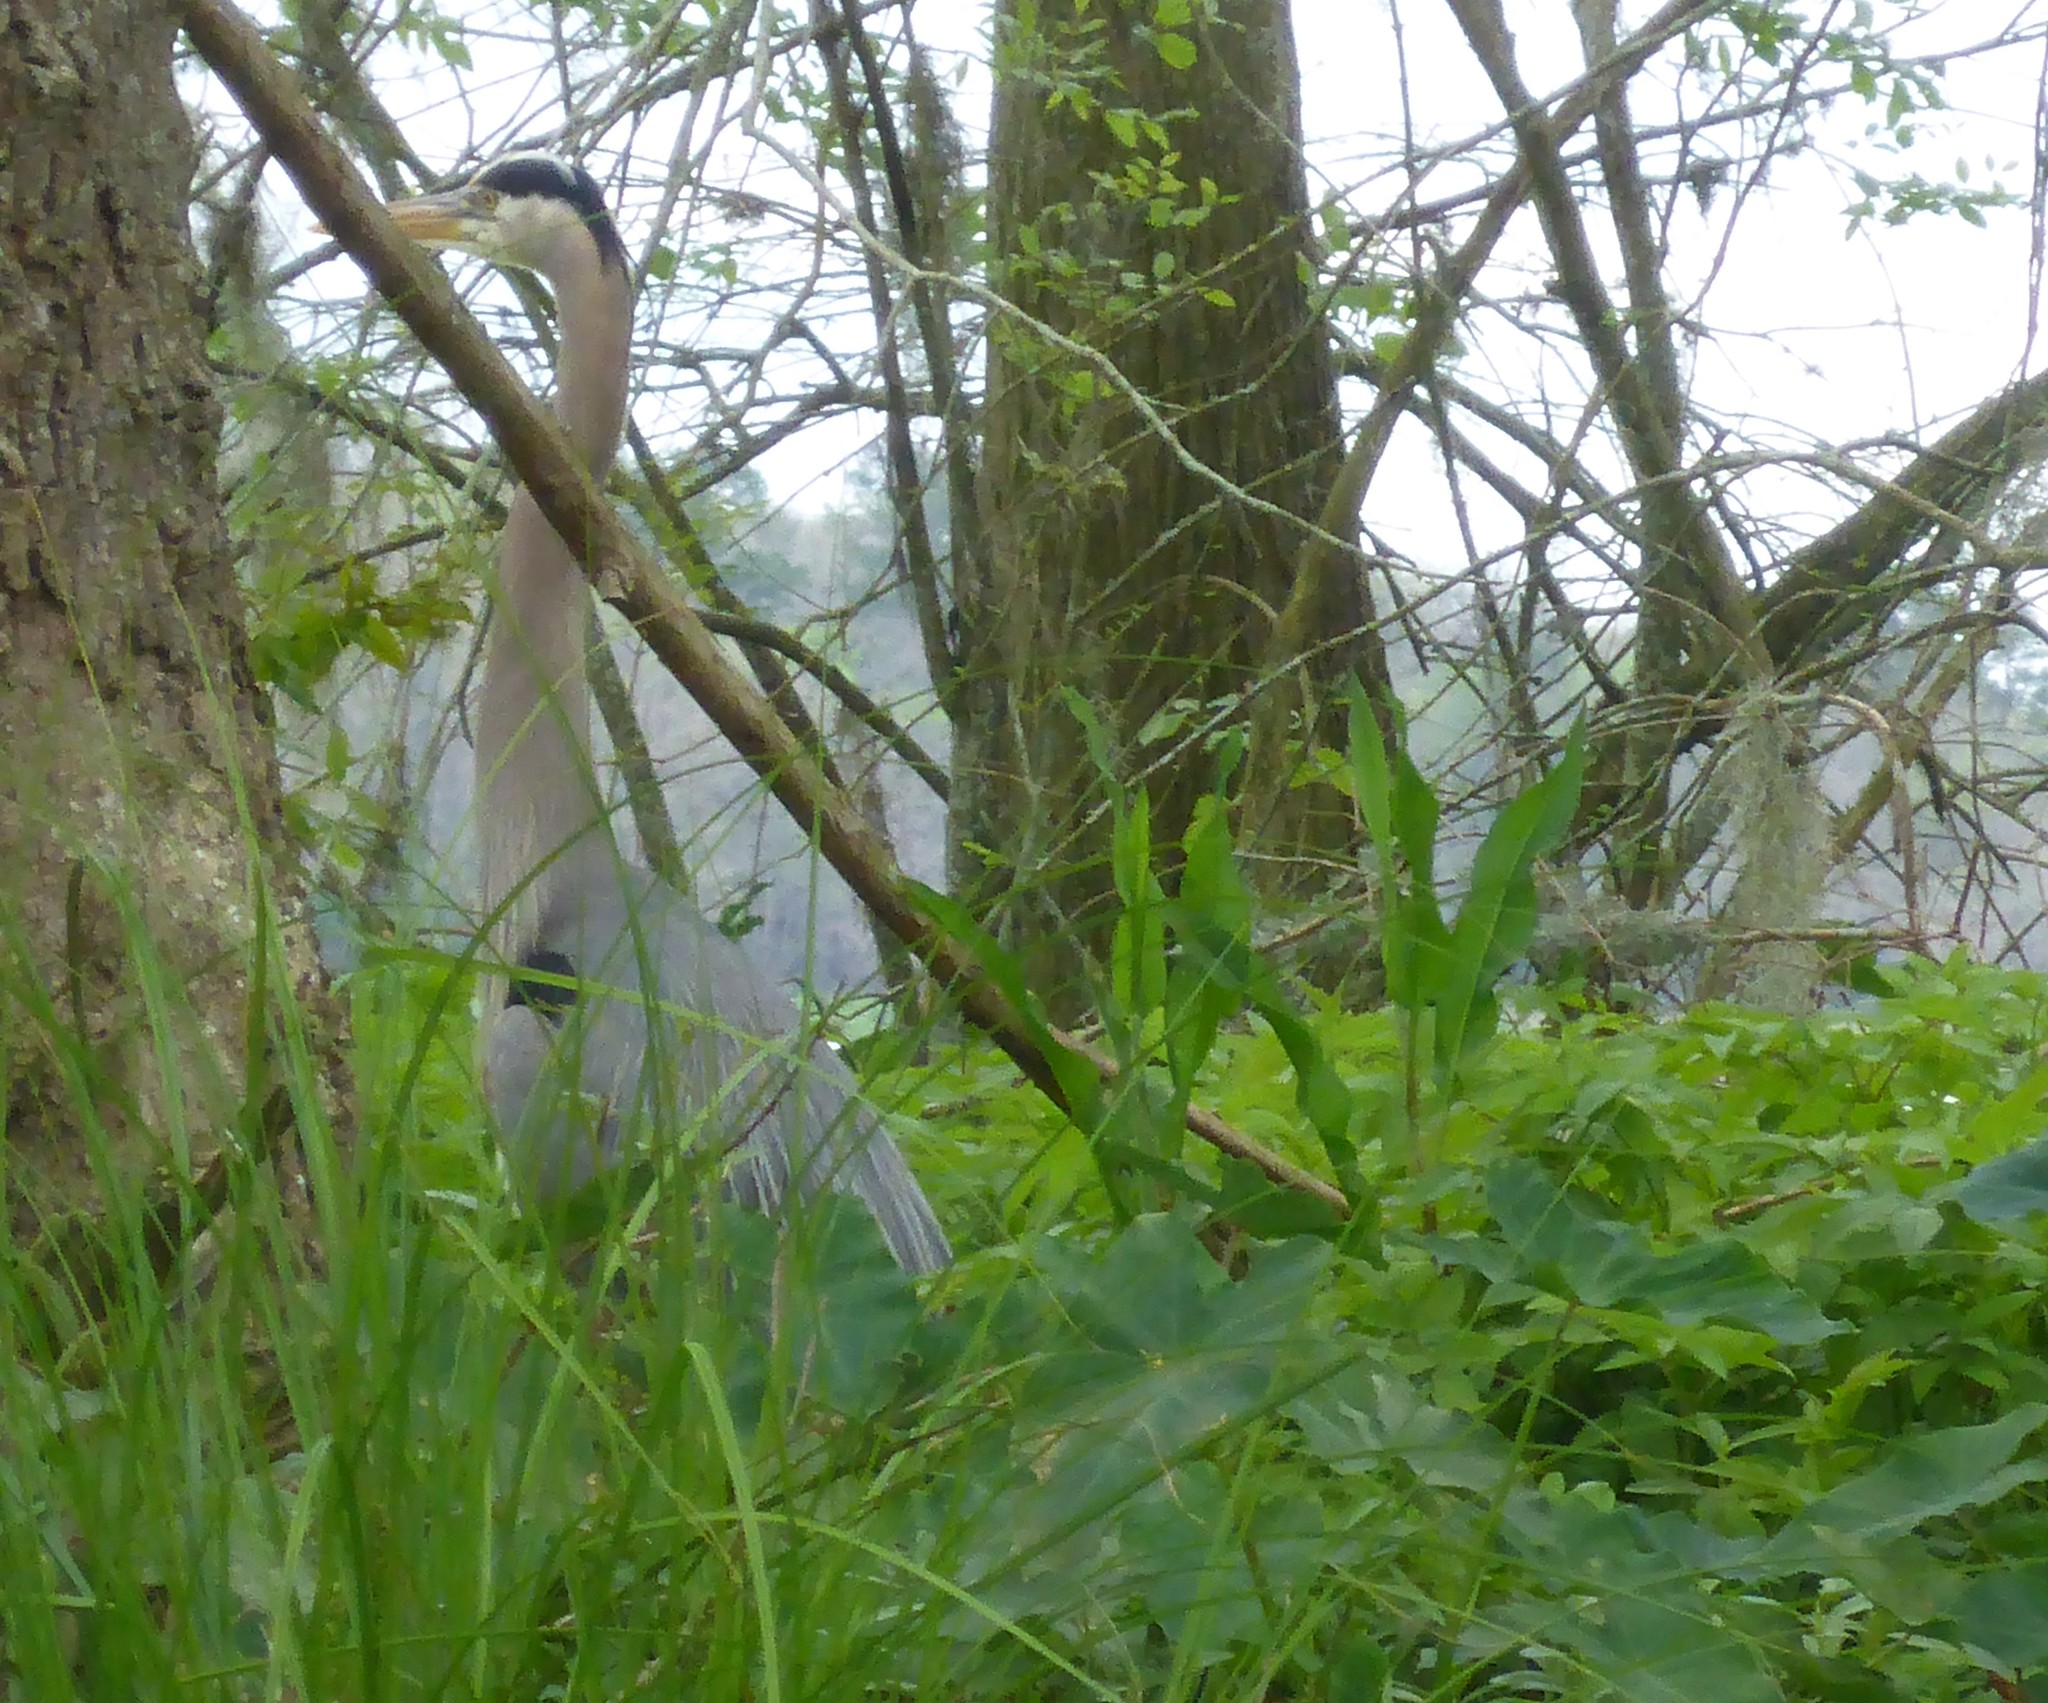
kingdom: Animalia
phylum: Chordata
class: Aves
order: Pelecaniformes
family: Ardeidae
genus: Ardea
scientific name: Ardea herodias
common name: Great blue heron
